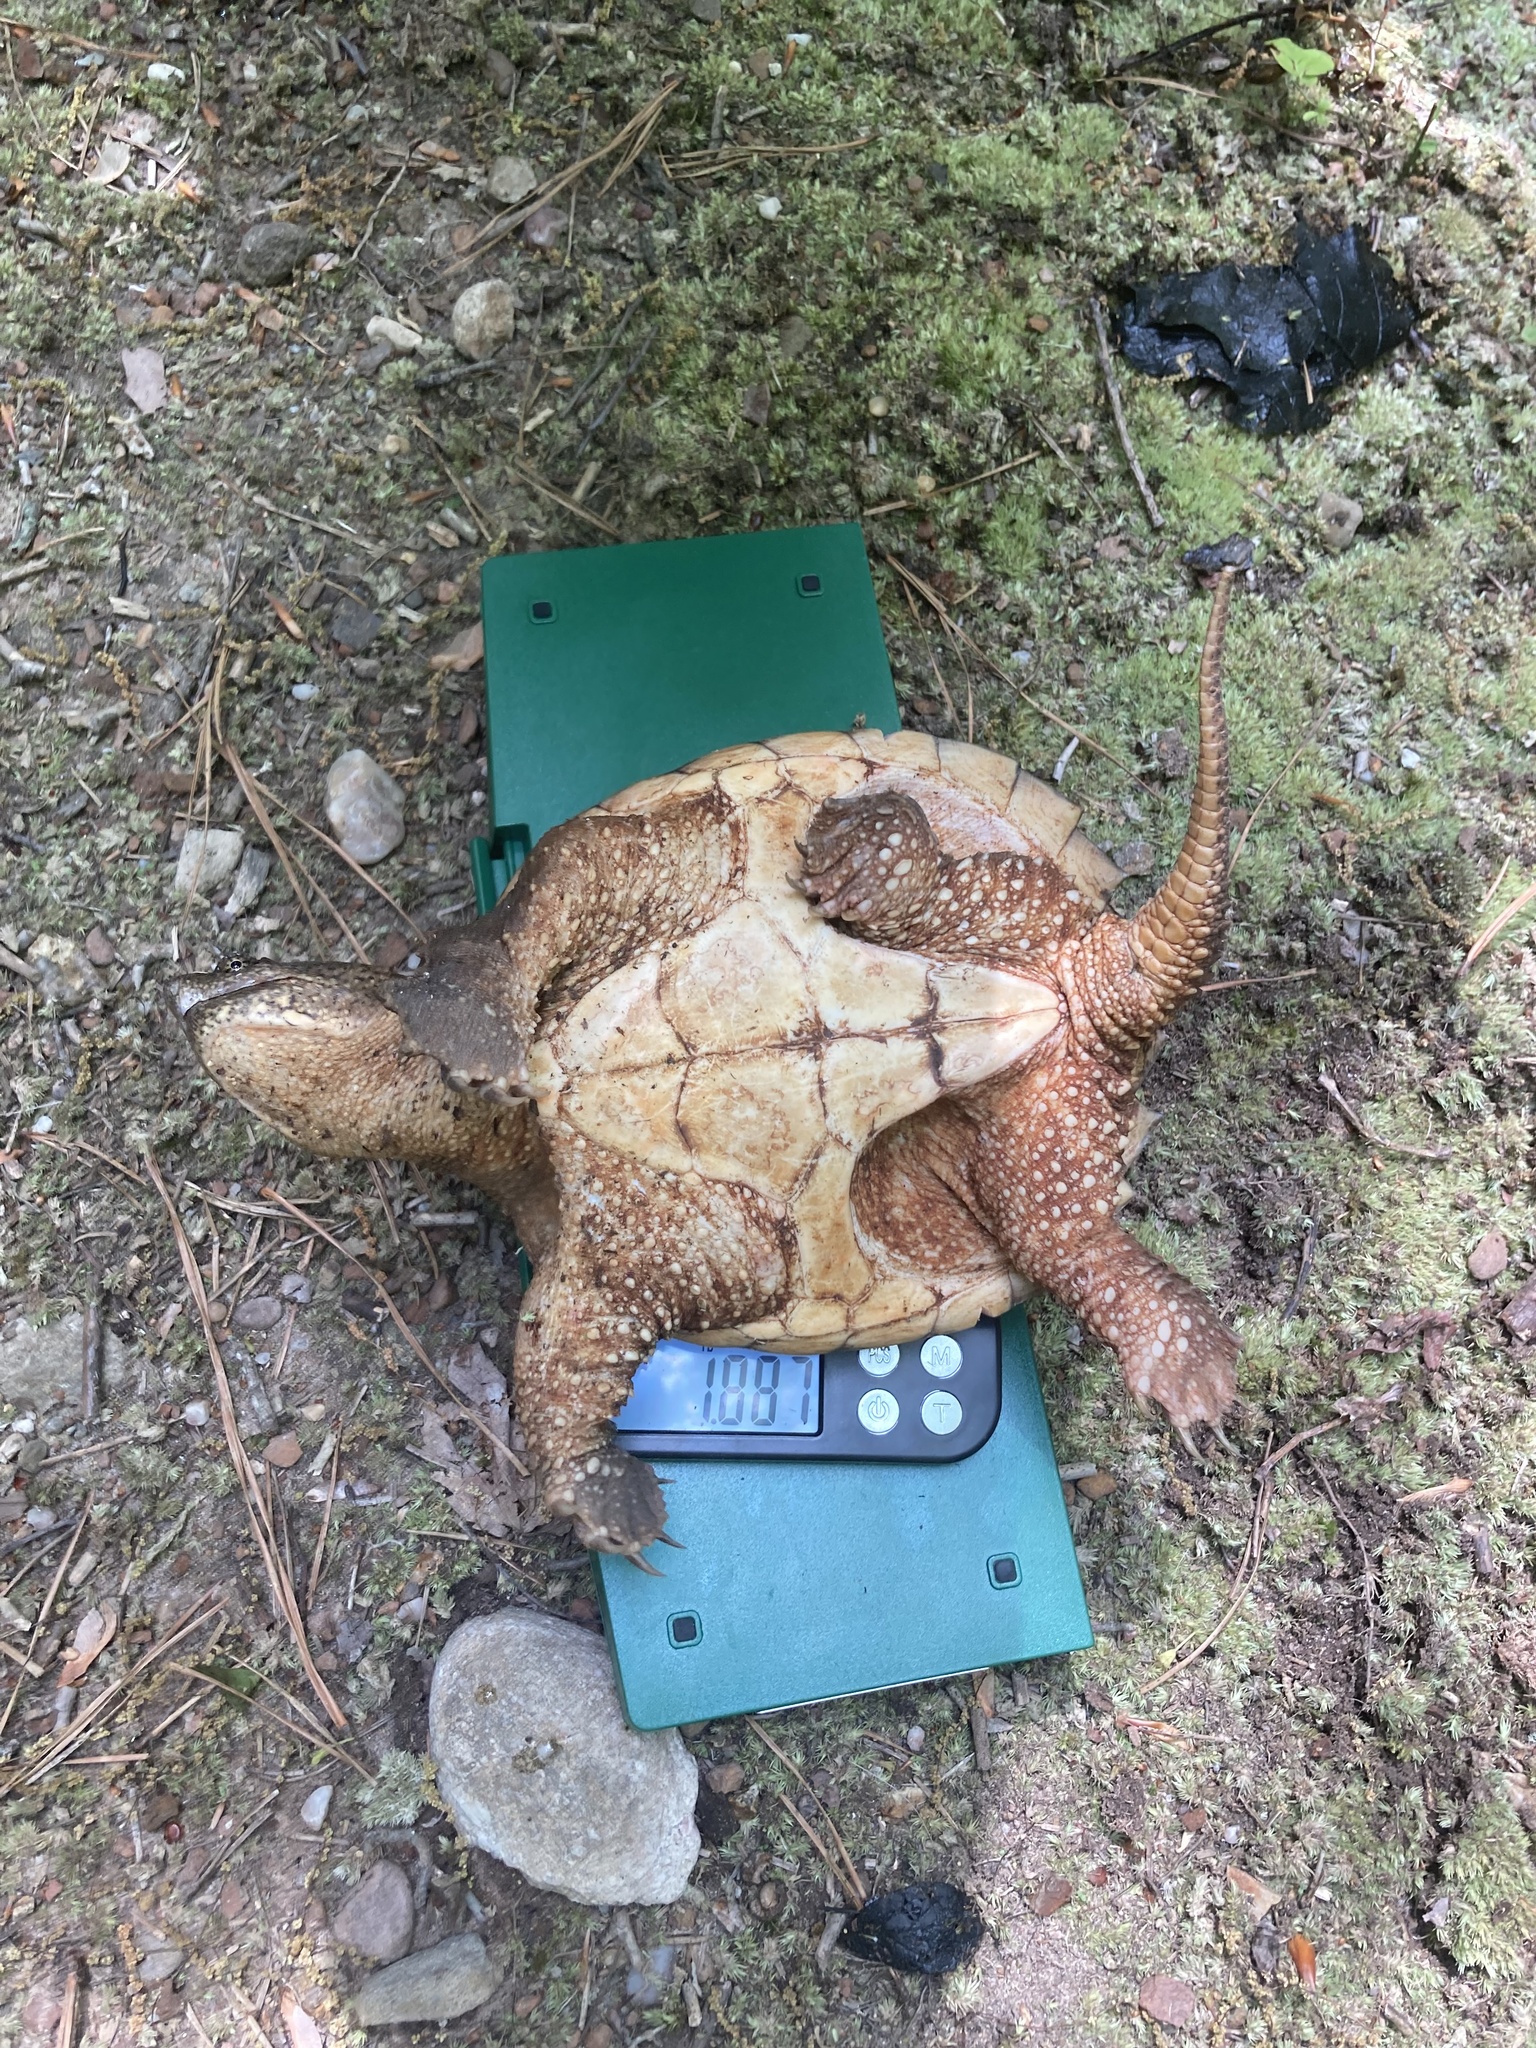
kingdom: Animalia
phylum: Chordata
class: Testudines
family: Chelydridae
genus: Chelydra
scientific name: Chelydra serpentina
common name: Common snapping turtle
